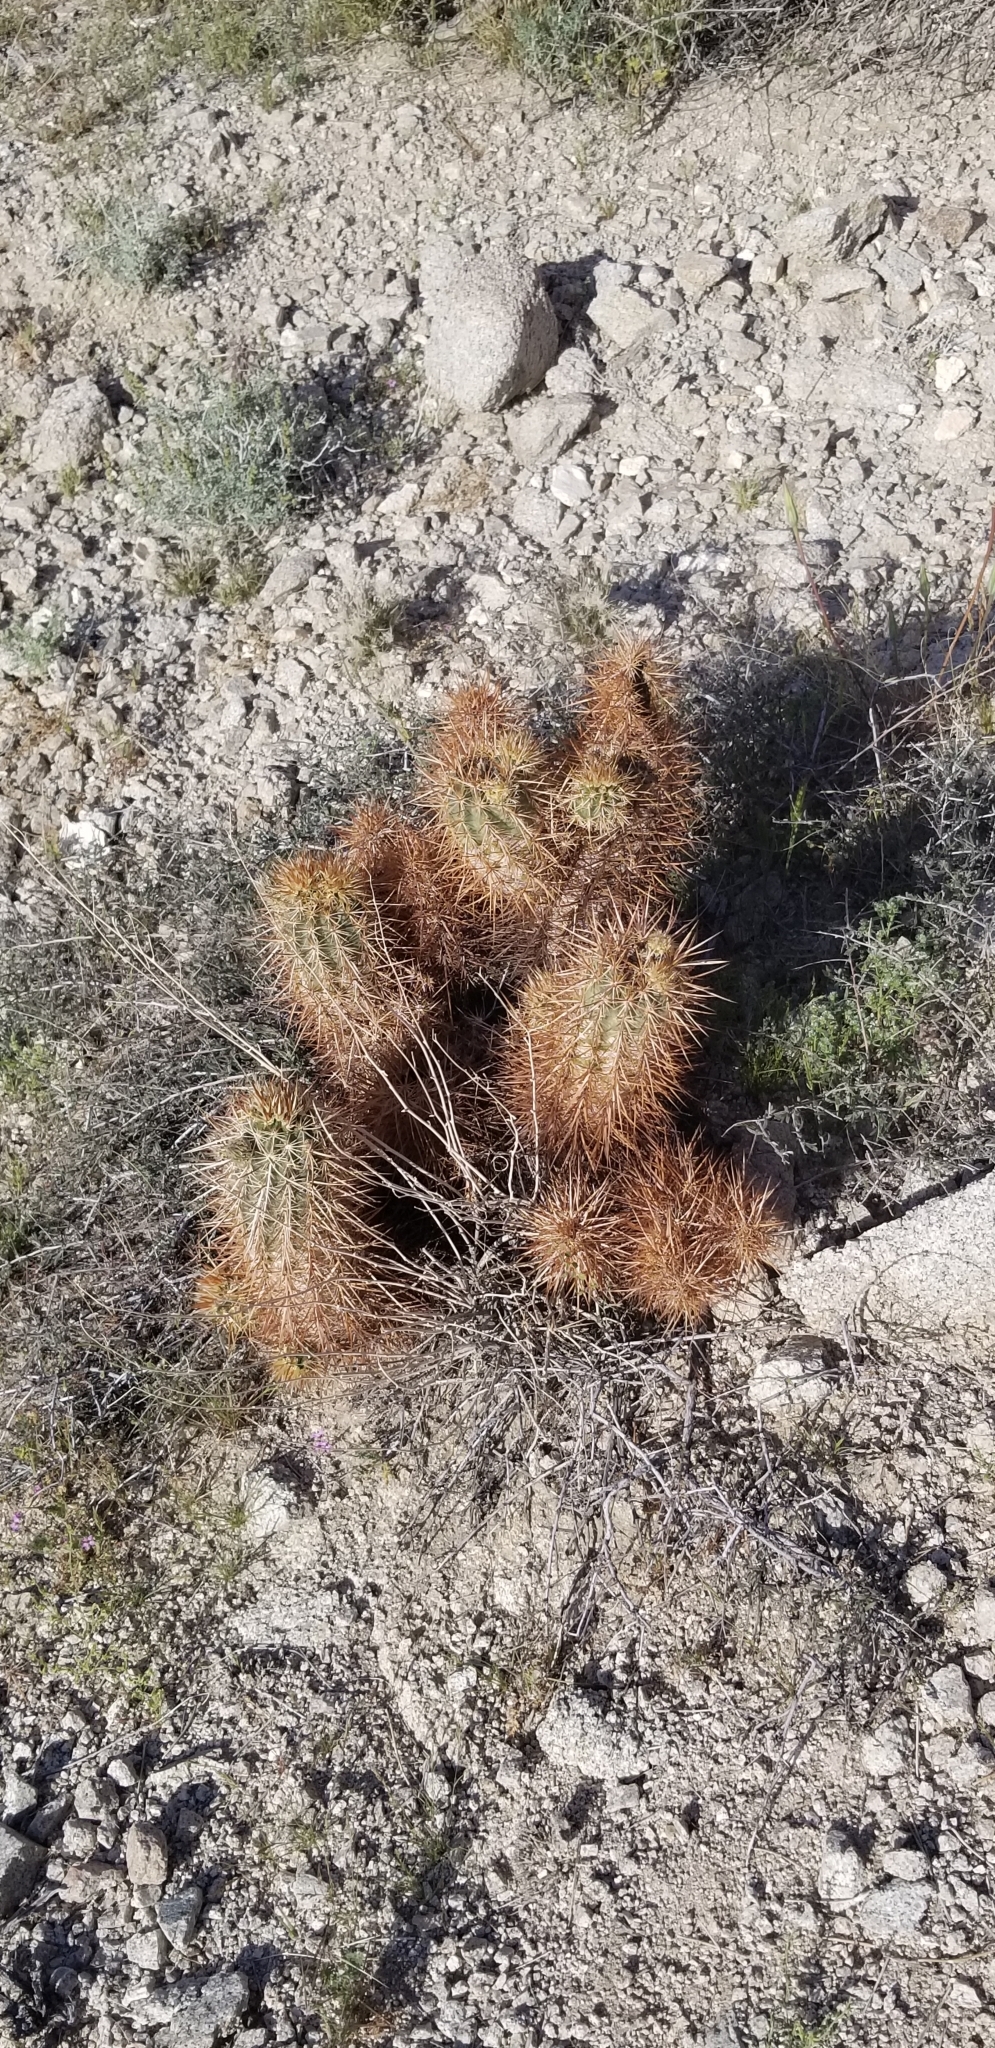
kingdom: Plantae
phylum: Tracheophyta
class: Magnoliopsida
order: Caryophyllales
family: Cactaceae
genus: Echinocereus
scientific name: Echinocereus engelmannii
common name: Engelmann's hedgehog cactus
